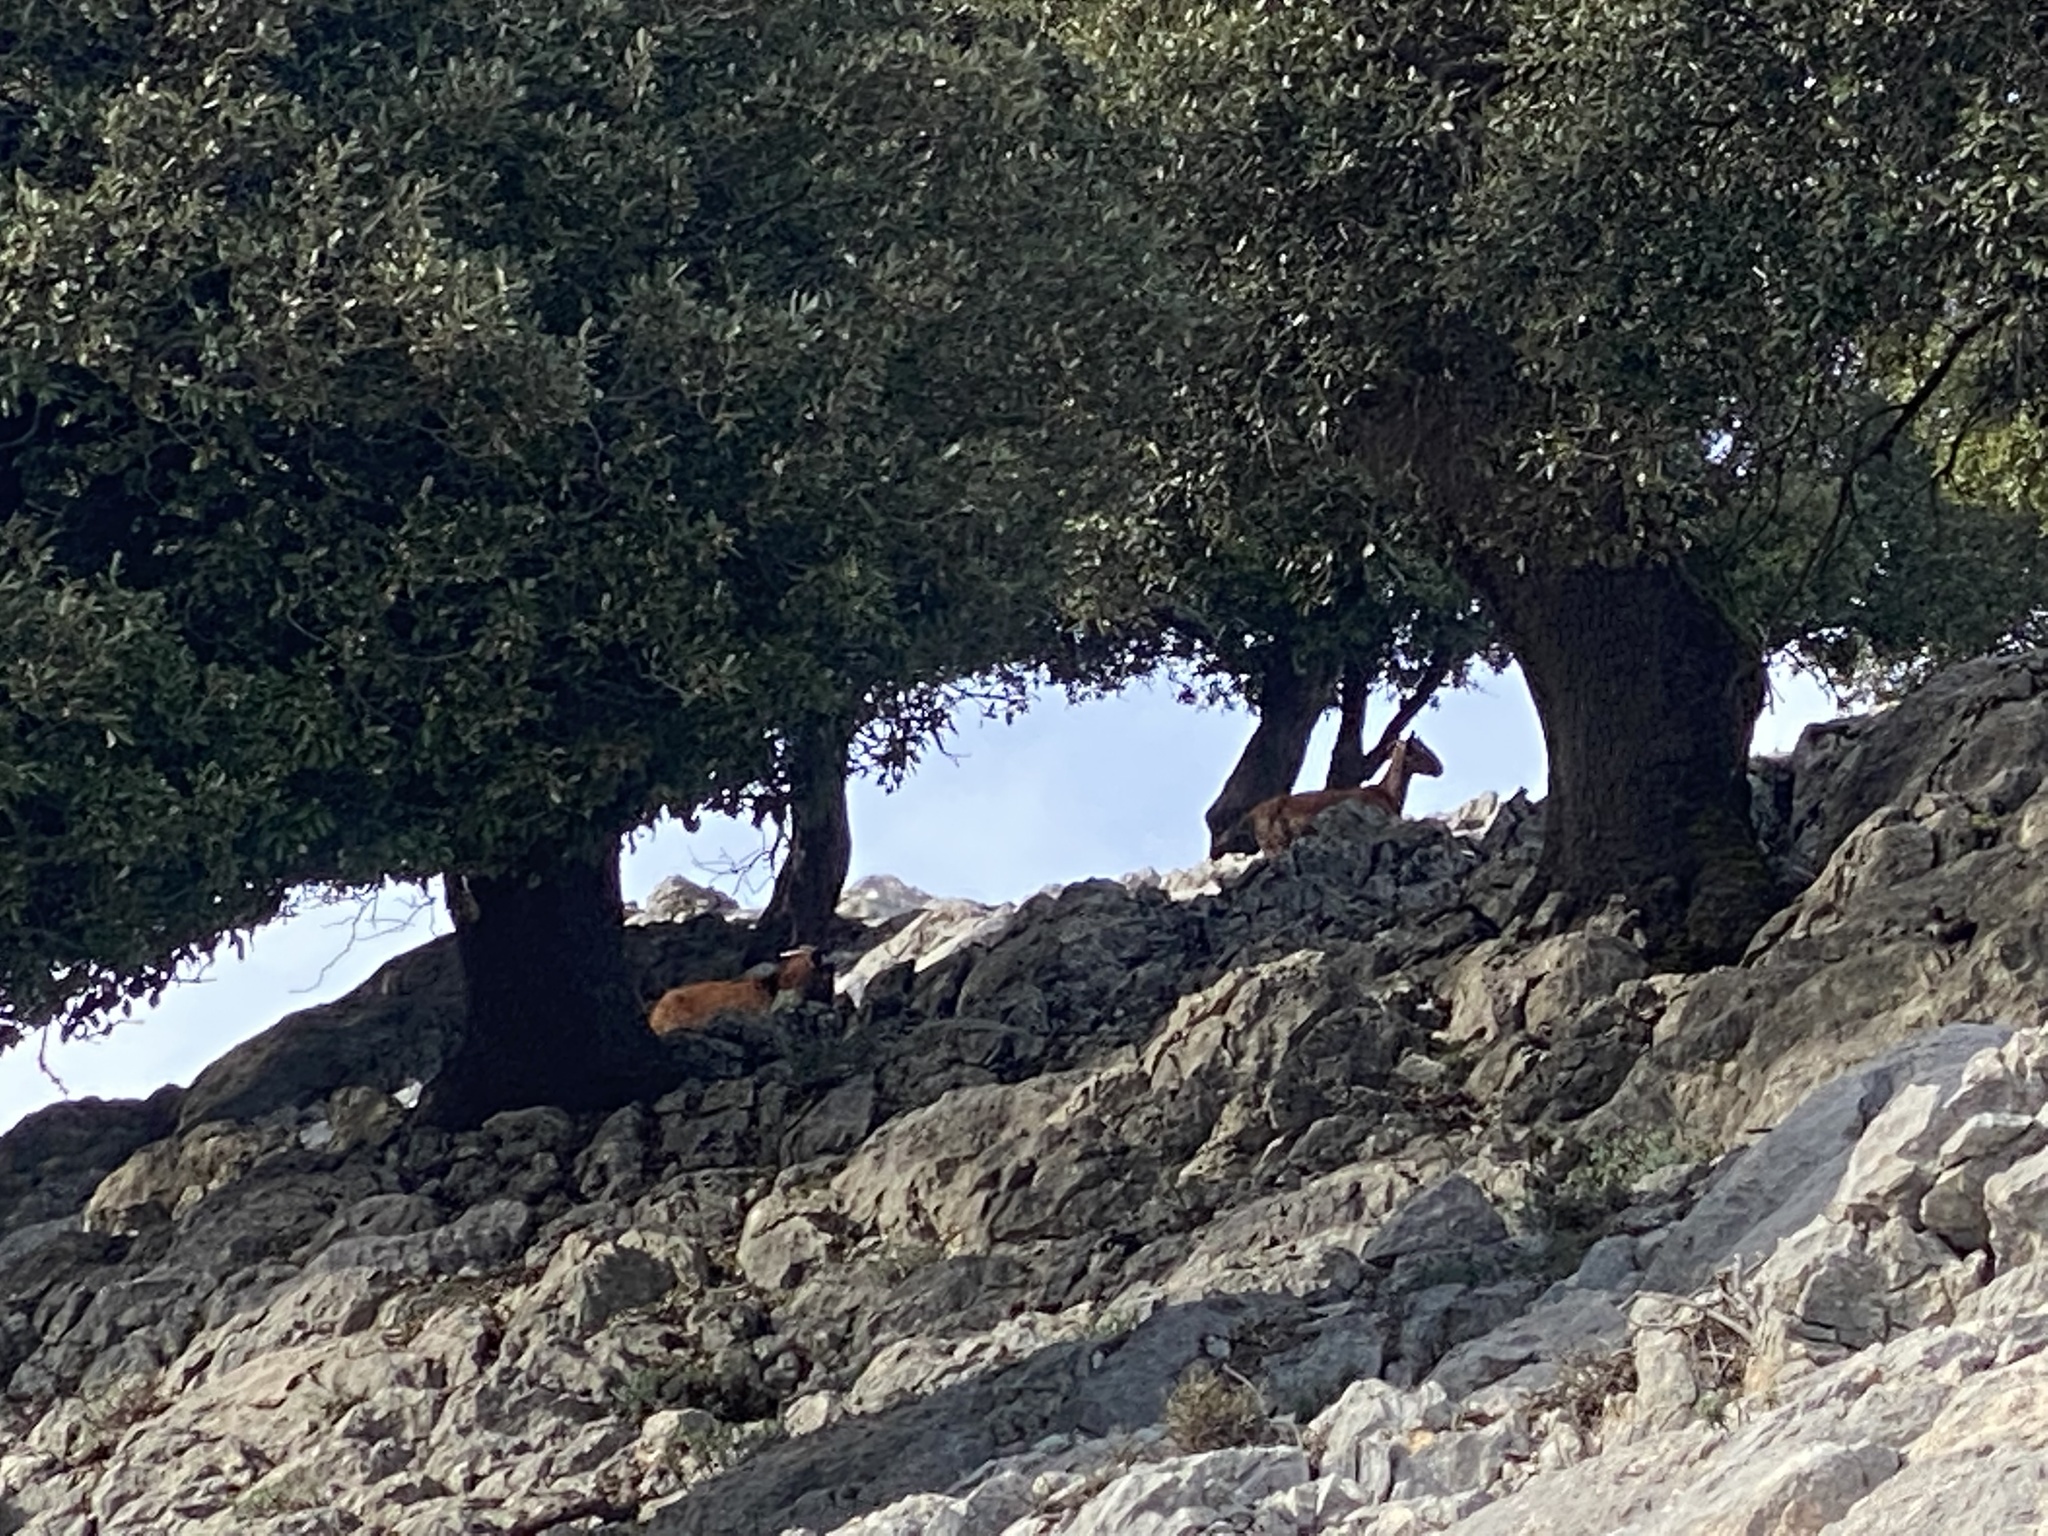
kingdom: Animalia
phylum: Chordata
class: Mammalia
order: Artiodactyla
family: Bovidae
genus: Capra
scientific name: Capra hircus
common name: Domestic goat
